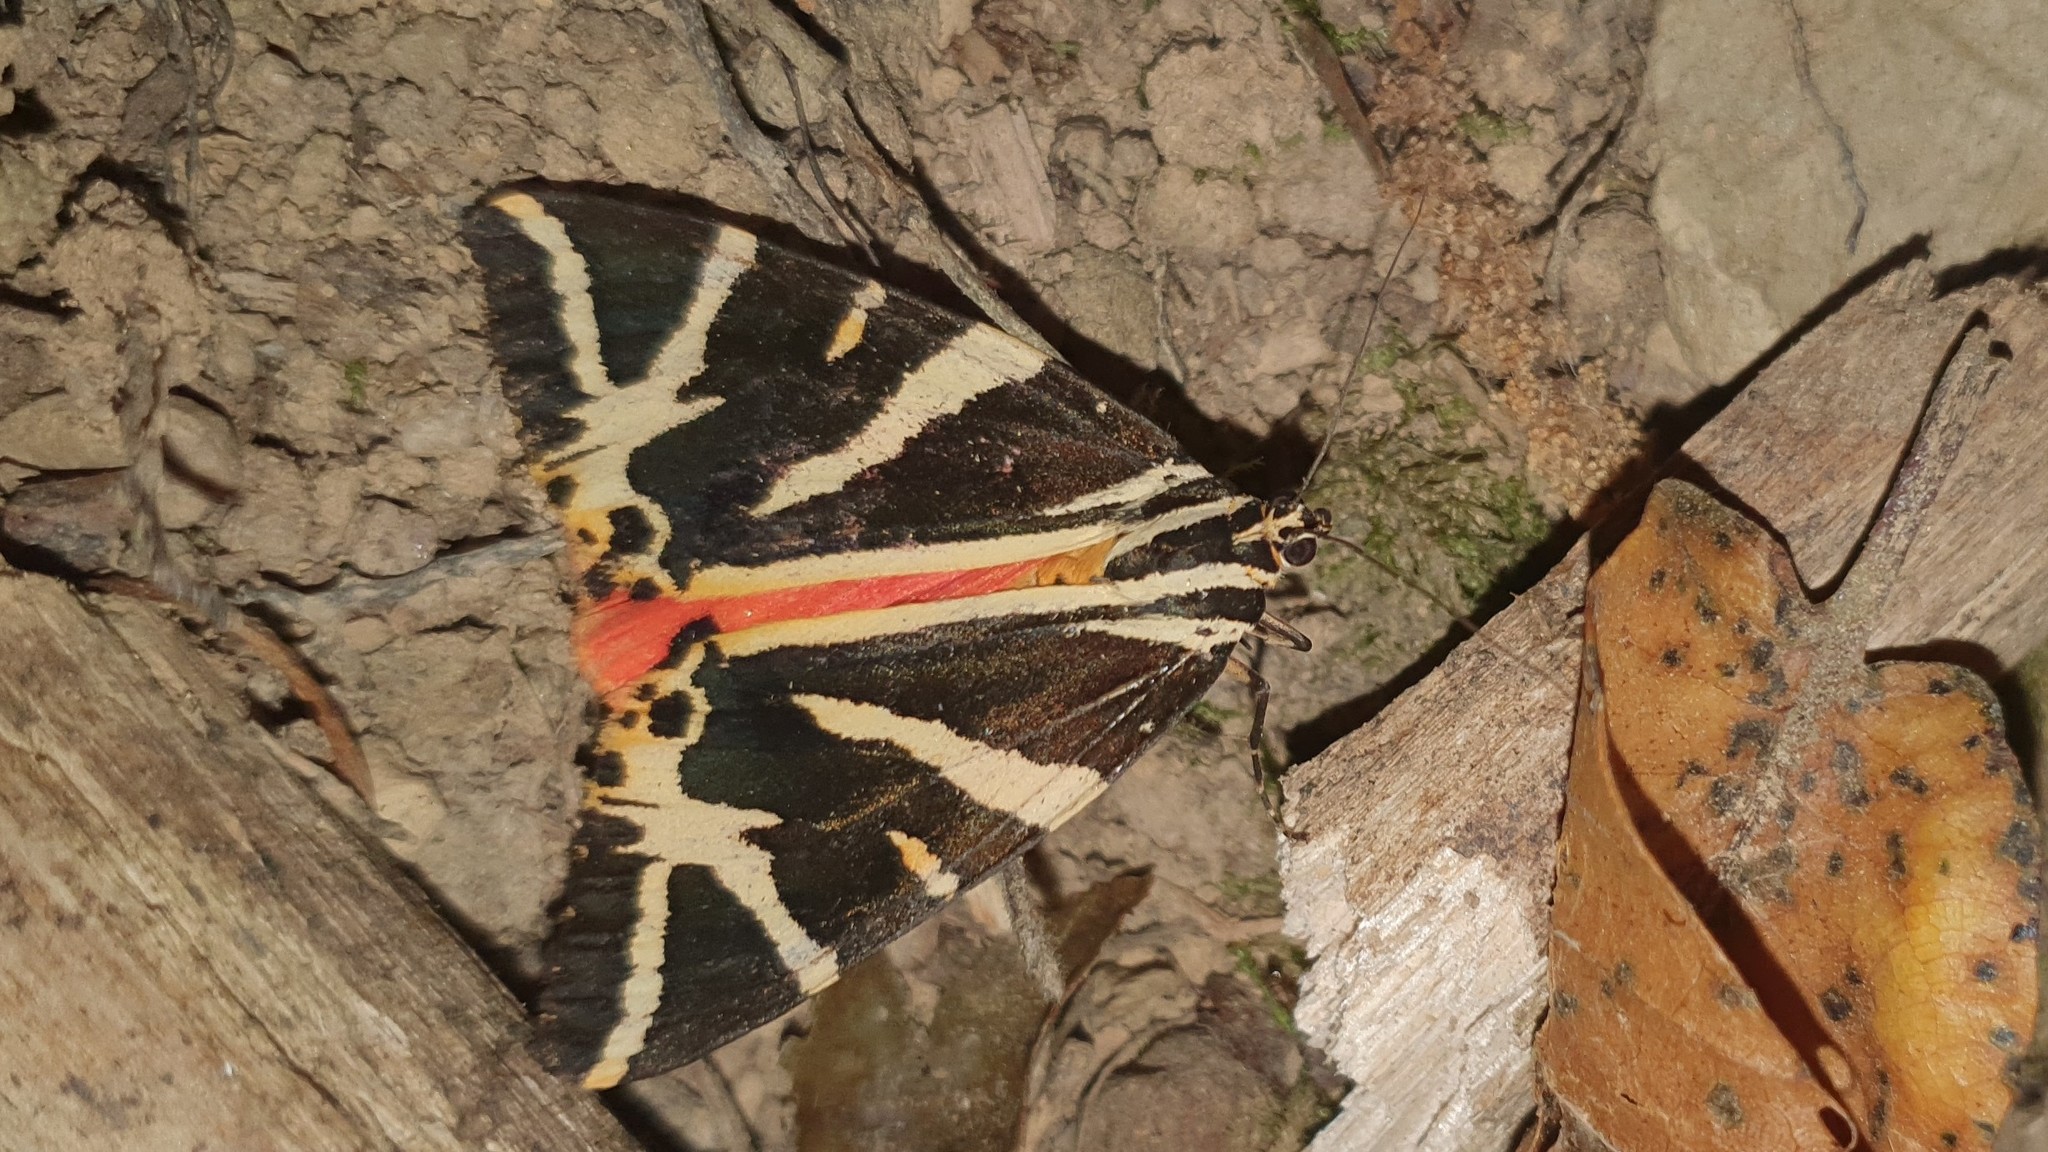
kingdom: Animalia
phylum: Arthropoda
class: Insecta
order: Lepidoptera
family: Erebidae
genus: Euplagia
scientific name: Euplagia quadripunctaria
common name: Jersey tiger
